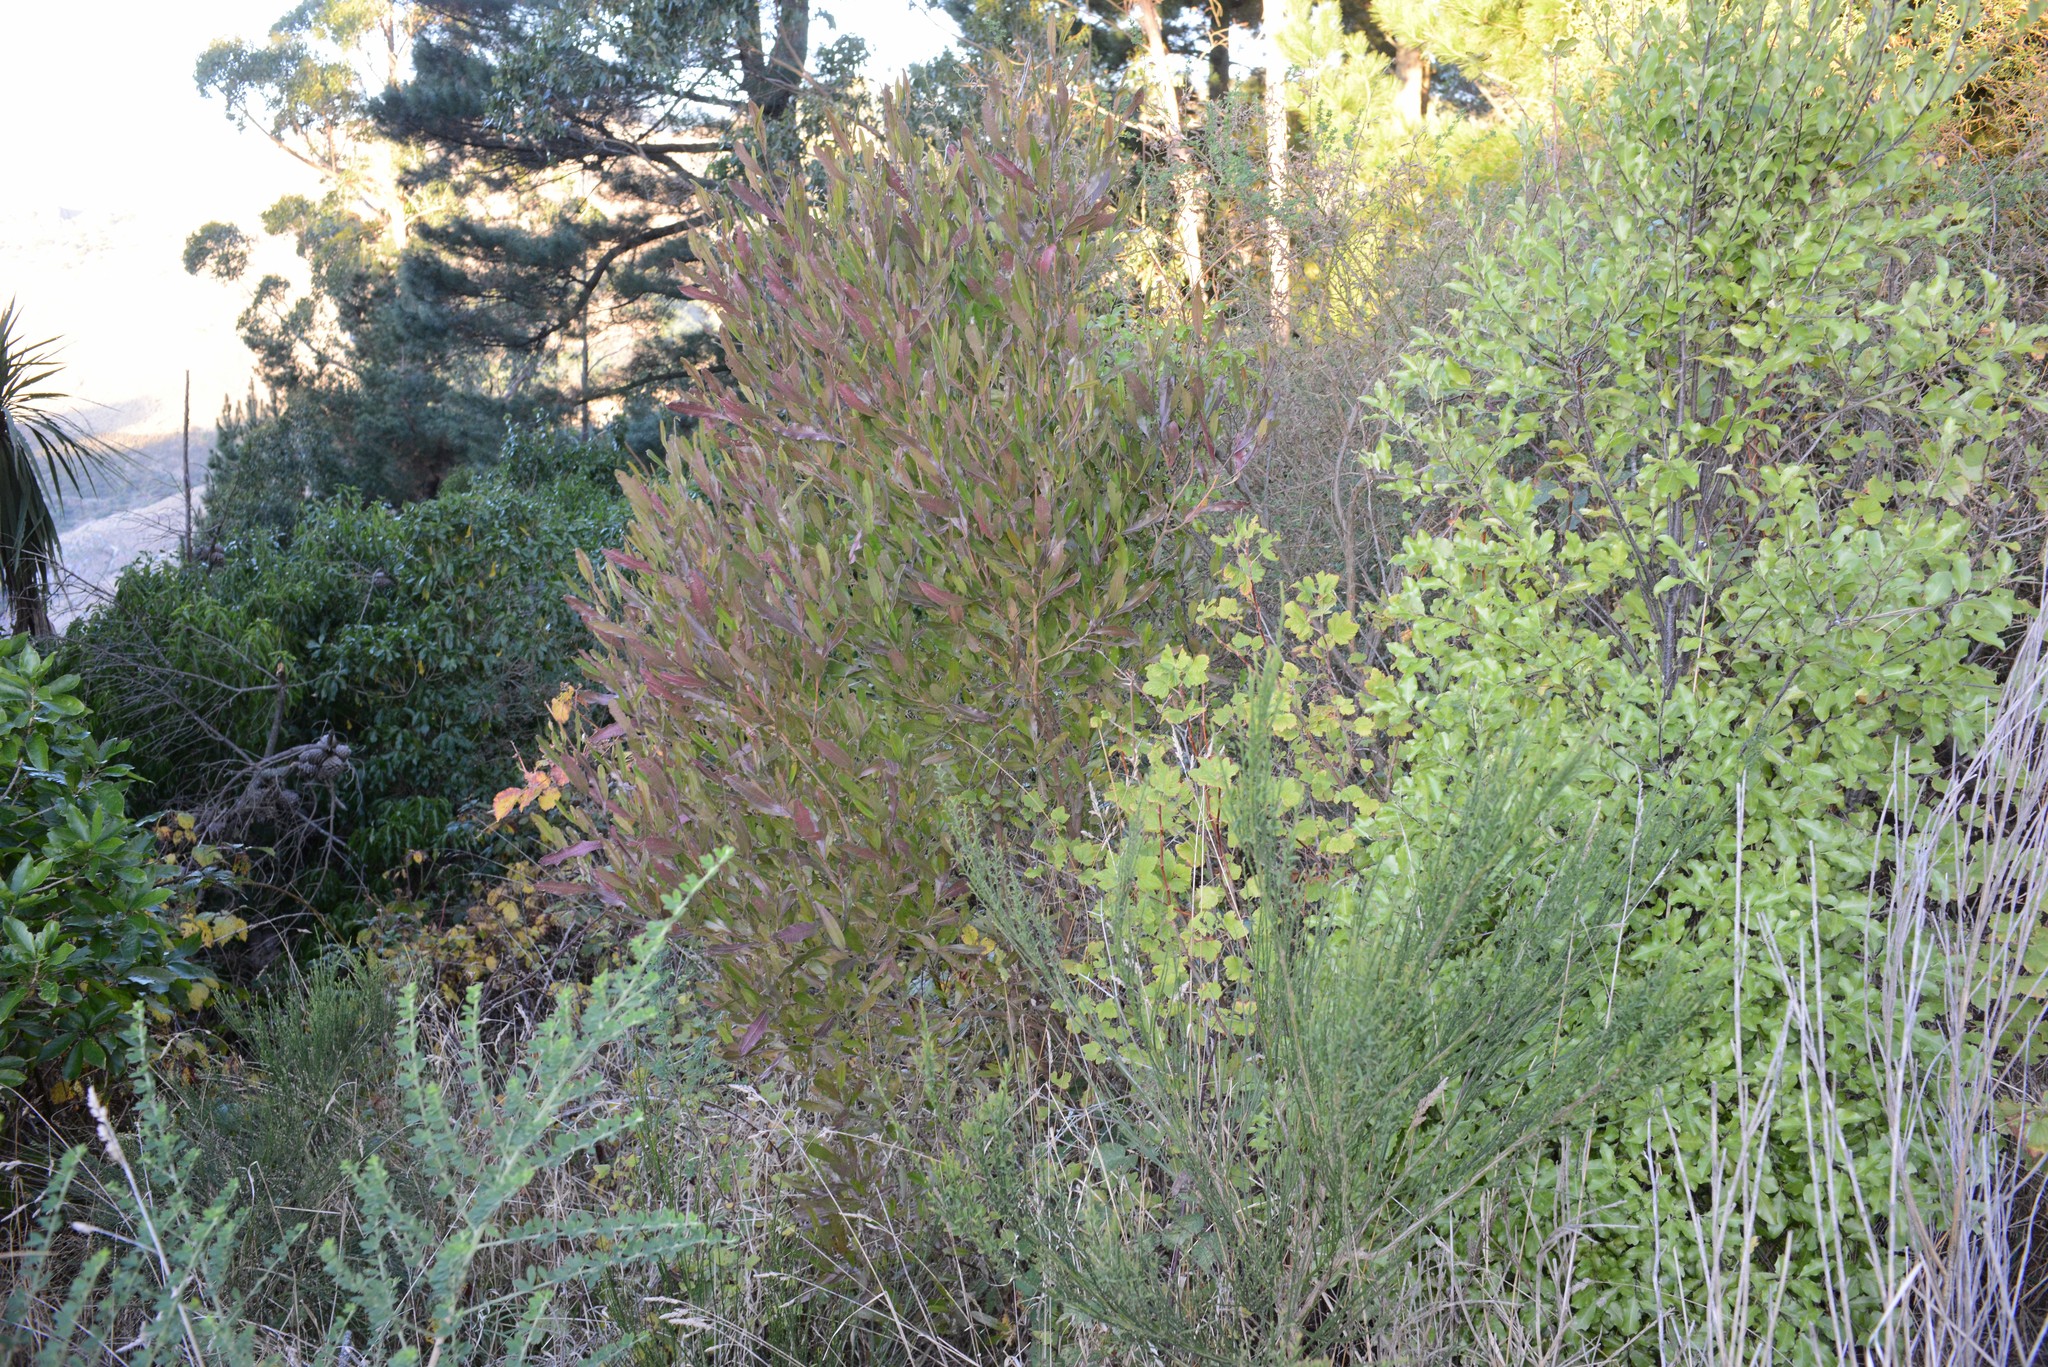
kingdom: Plantae
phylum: Tracheophyta
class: Magnoliopsida
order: Sapindales
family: Sapindaceae
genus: Dodonaea
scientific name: Dodonaea viscosa
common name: Hopbush
